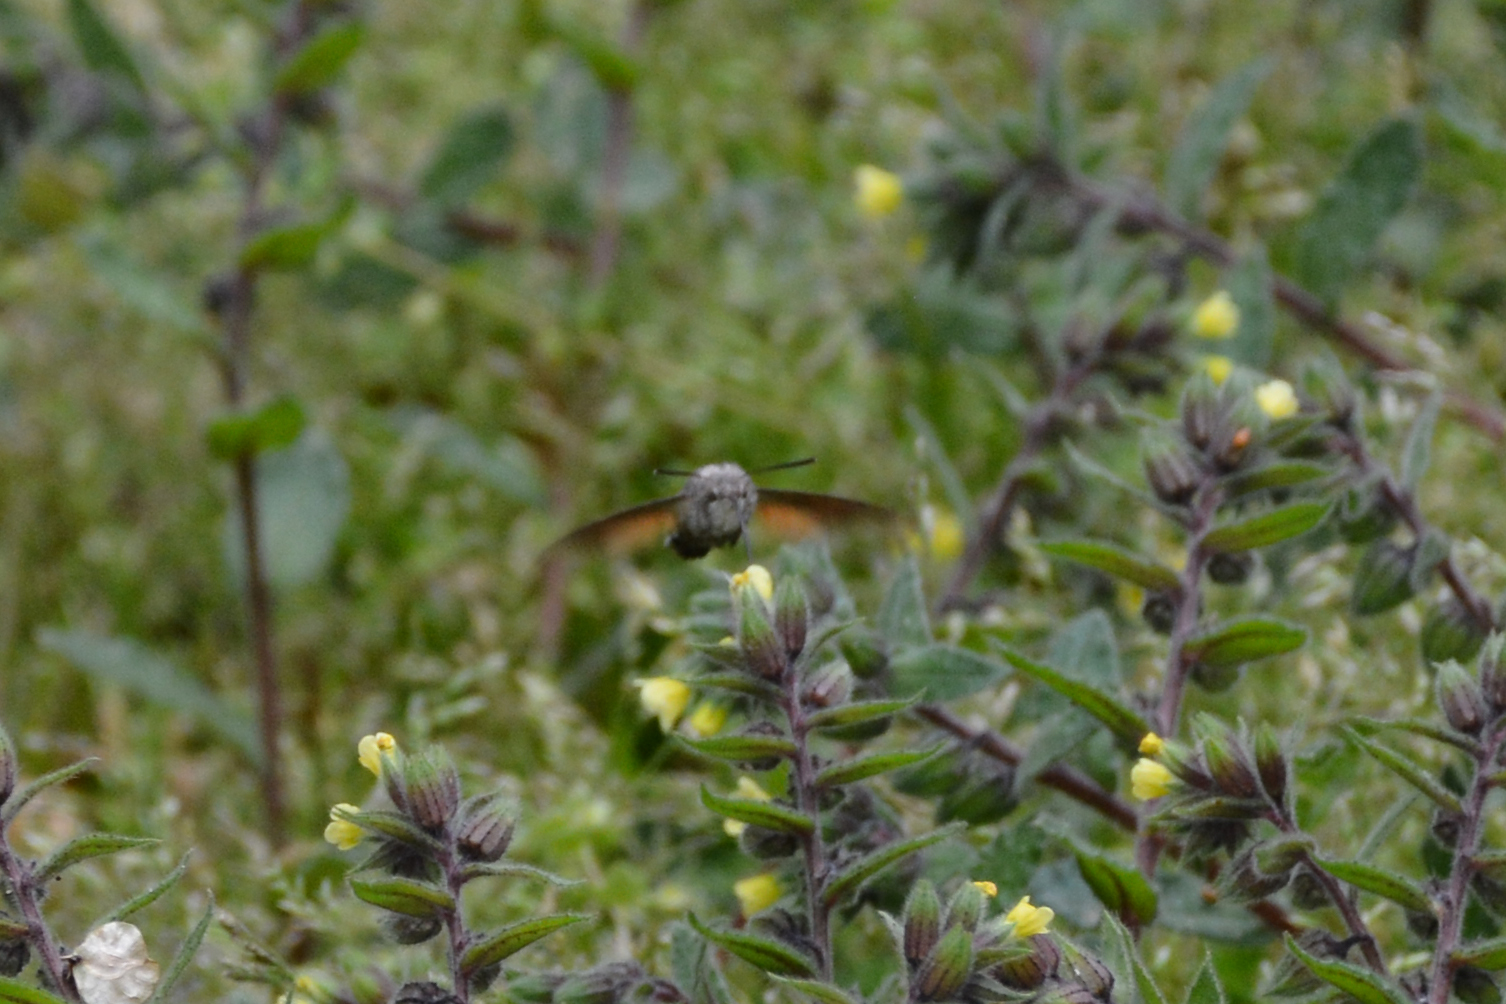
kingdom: Animalia
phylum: Arthropoda
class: Insecta
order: Lepidoptera
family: Sphingidae
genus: Macroglossum
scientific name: Macroglossum stellatarum
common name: Humming-bird hawk-moth
